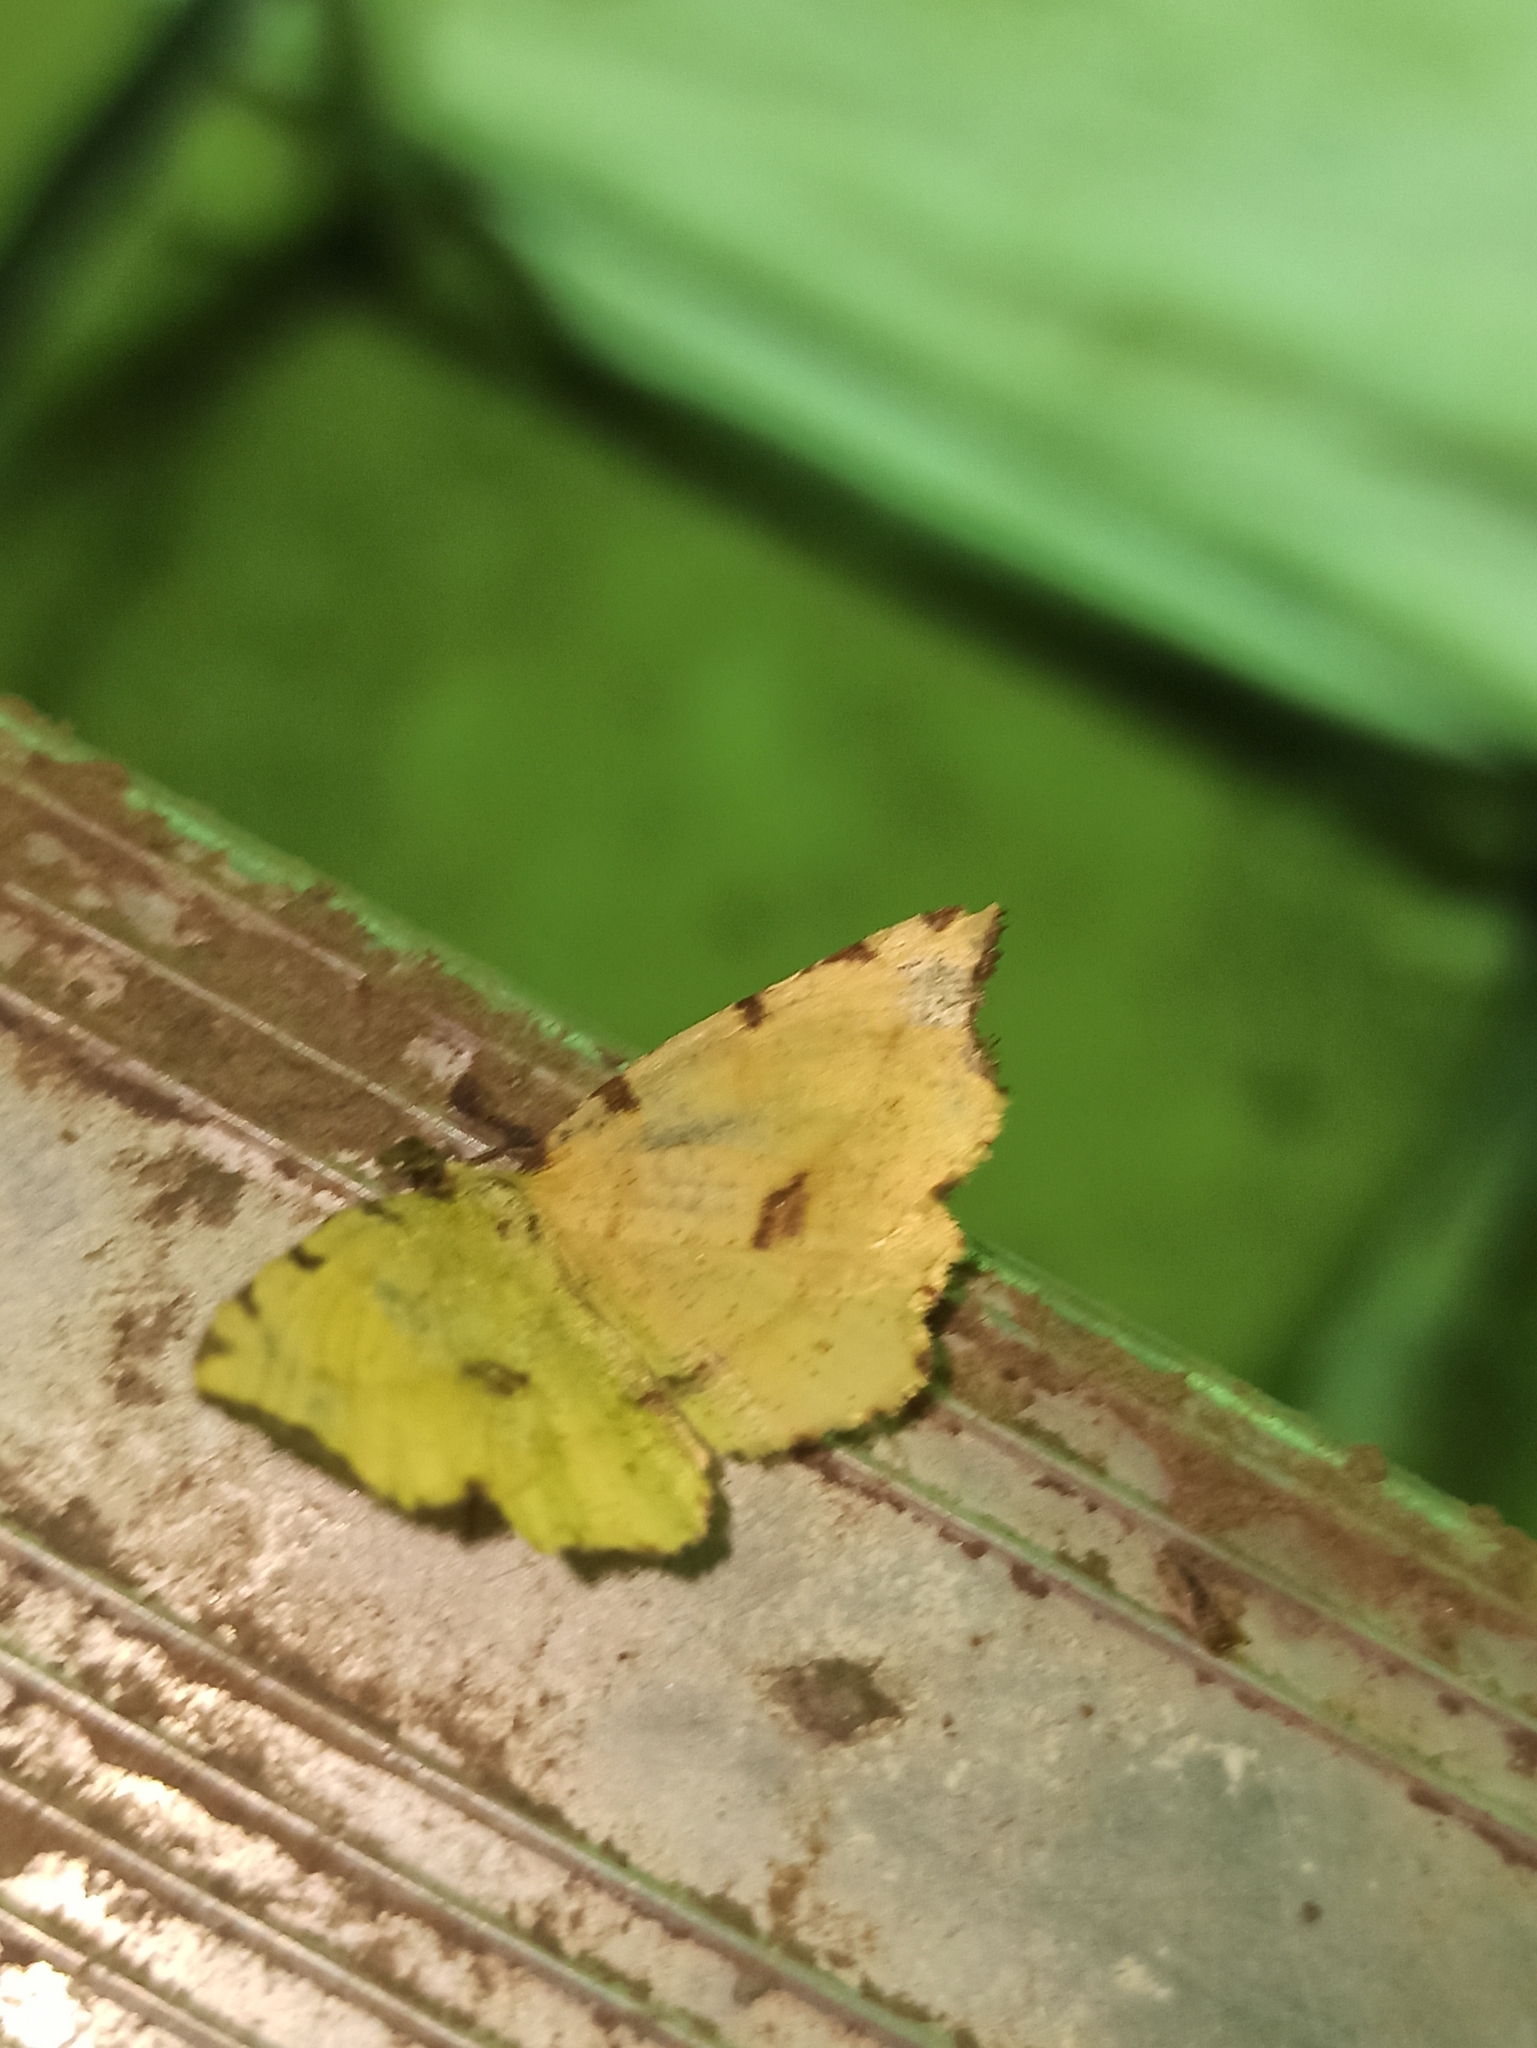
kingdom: Animalia
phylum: Arthropoda
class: Insecta
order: Lepidoptera
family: Geometridae
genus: Therapis
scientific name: Therapis flavicaria
